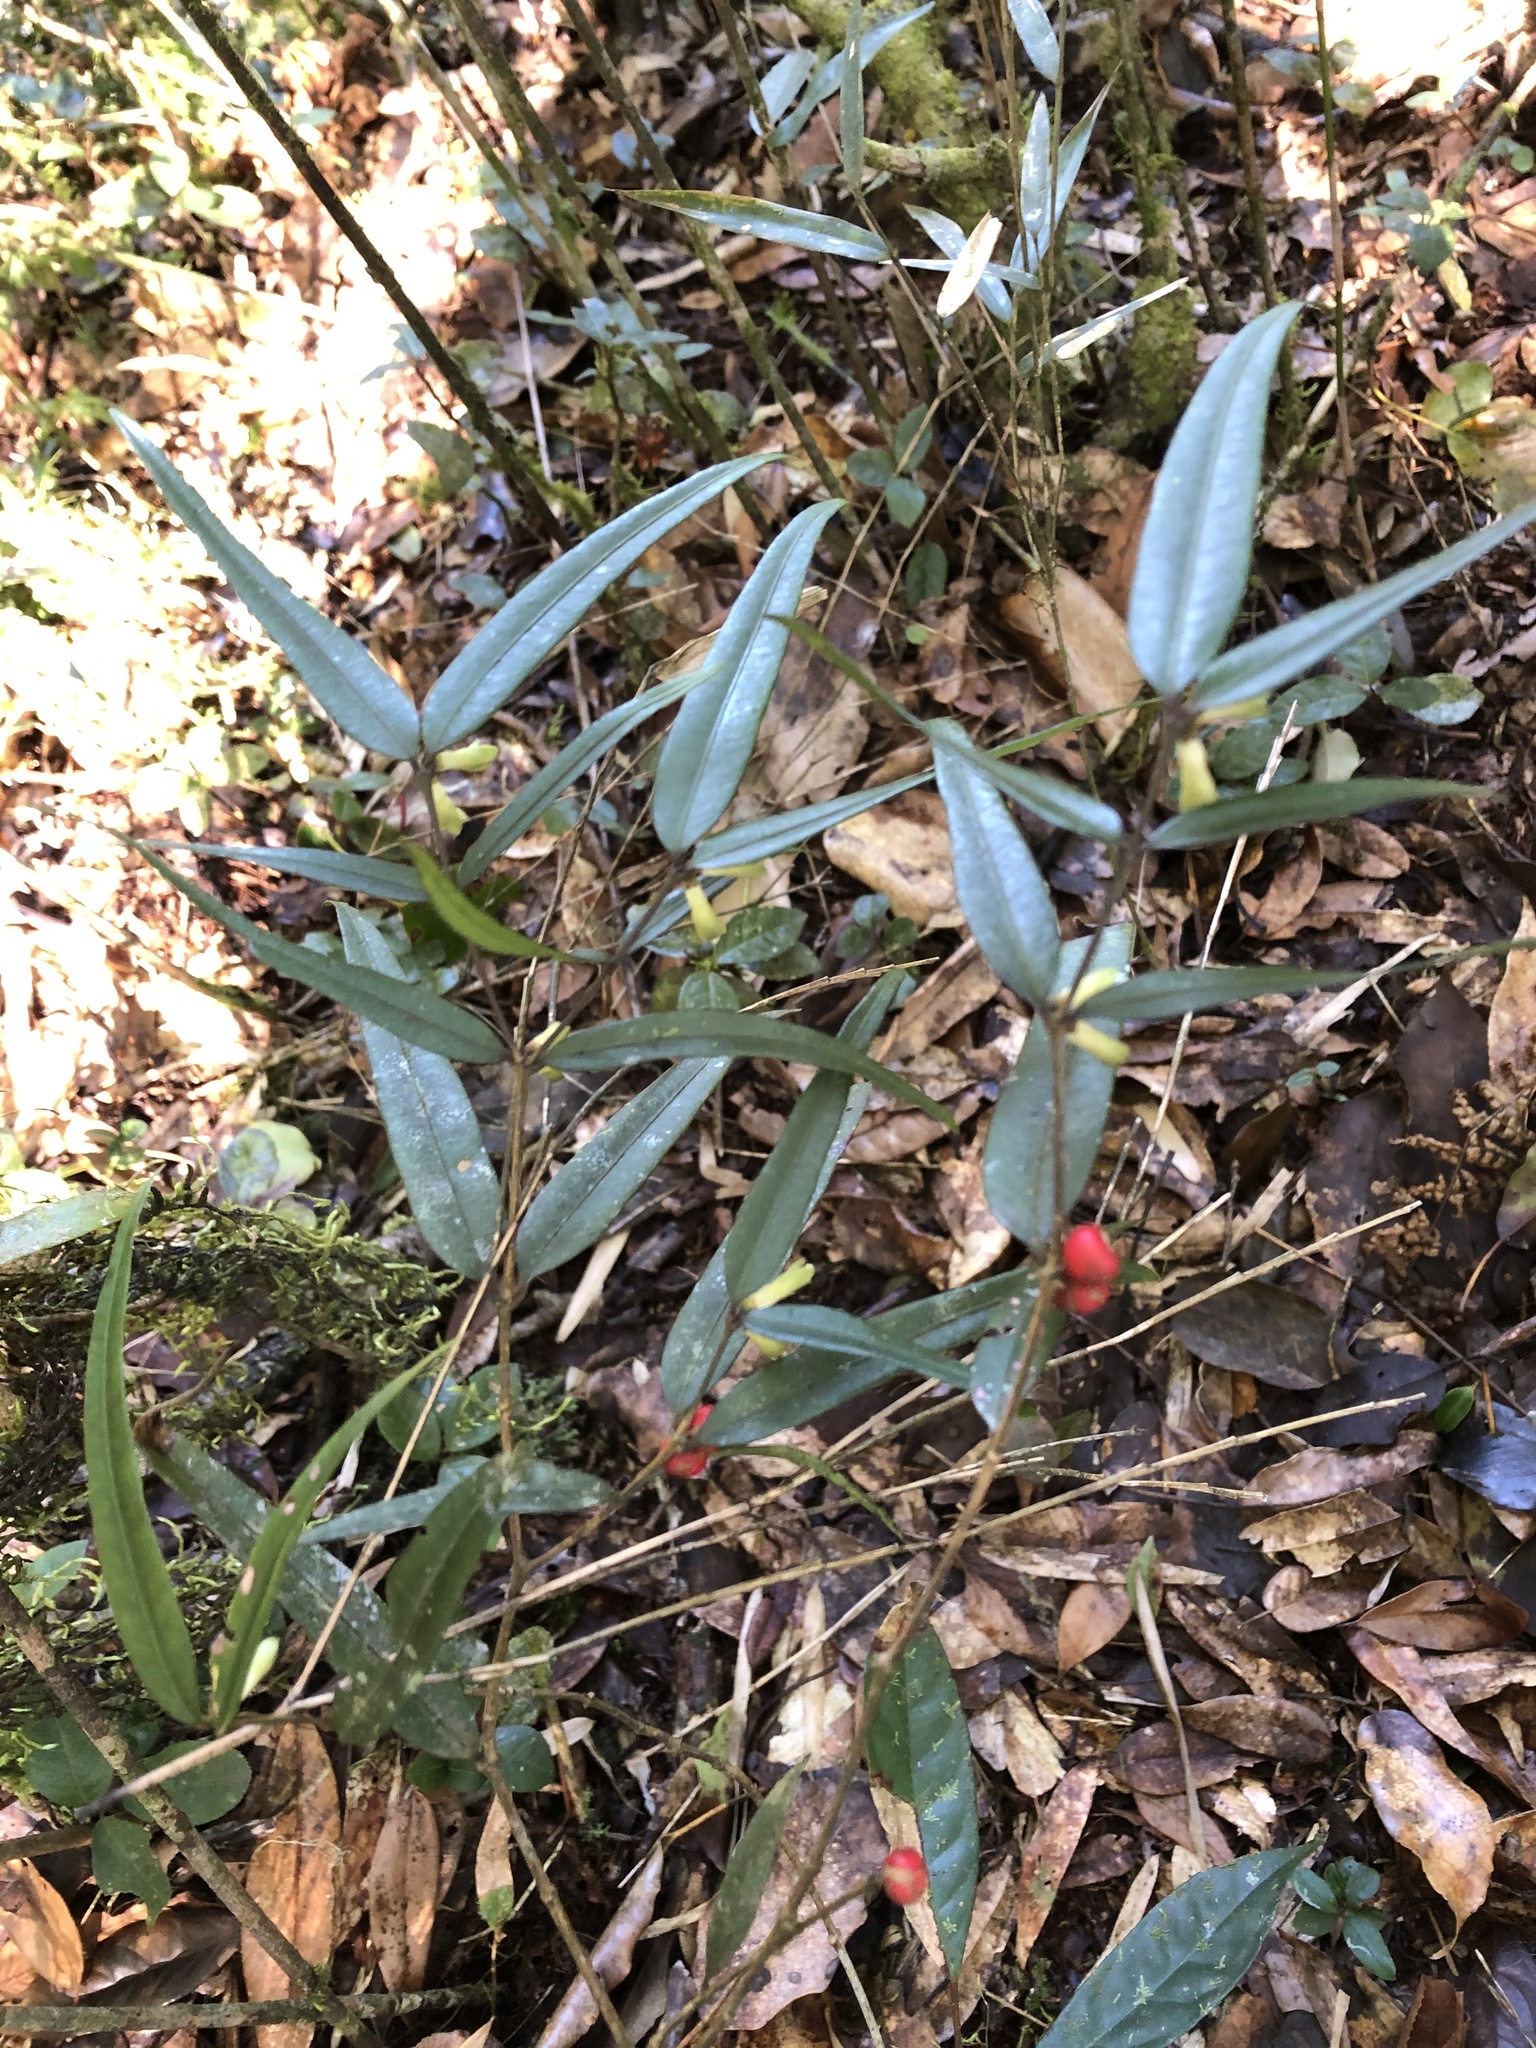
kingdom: Plantae
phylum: Tracheophyta
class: Magnoliopsida
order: Gentianales
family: Rubiaceae
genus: Damnacanthus
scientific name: Damnacanthus angustifolius
